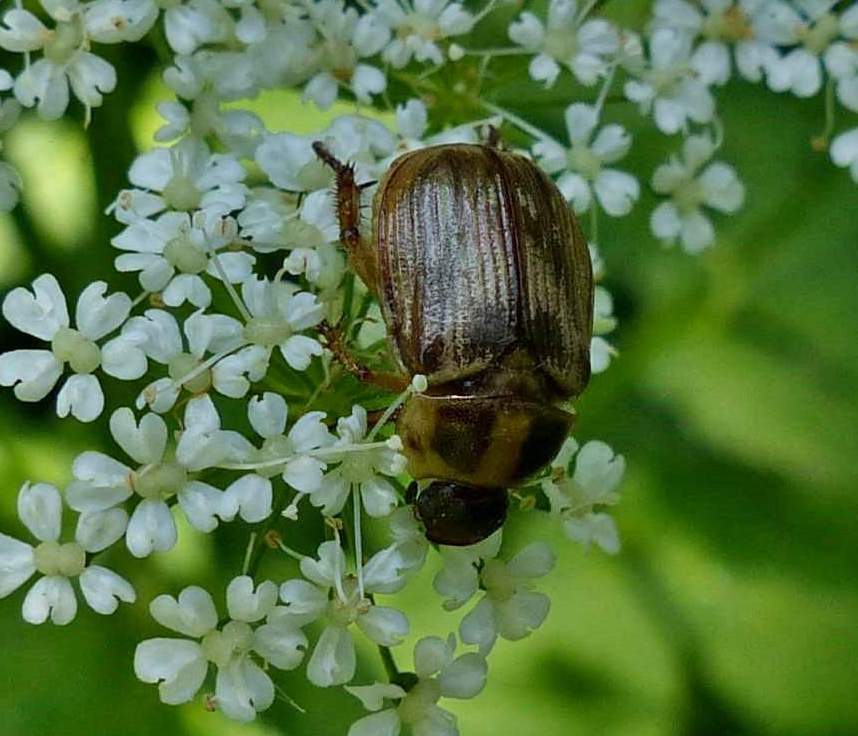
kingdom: Animalia
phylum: Arthropoda
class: Insecta
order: Coleoptera
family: Scarabaeidae
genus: Exomala
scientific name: Exomala orientalis
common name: Oriental beetle
